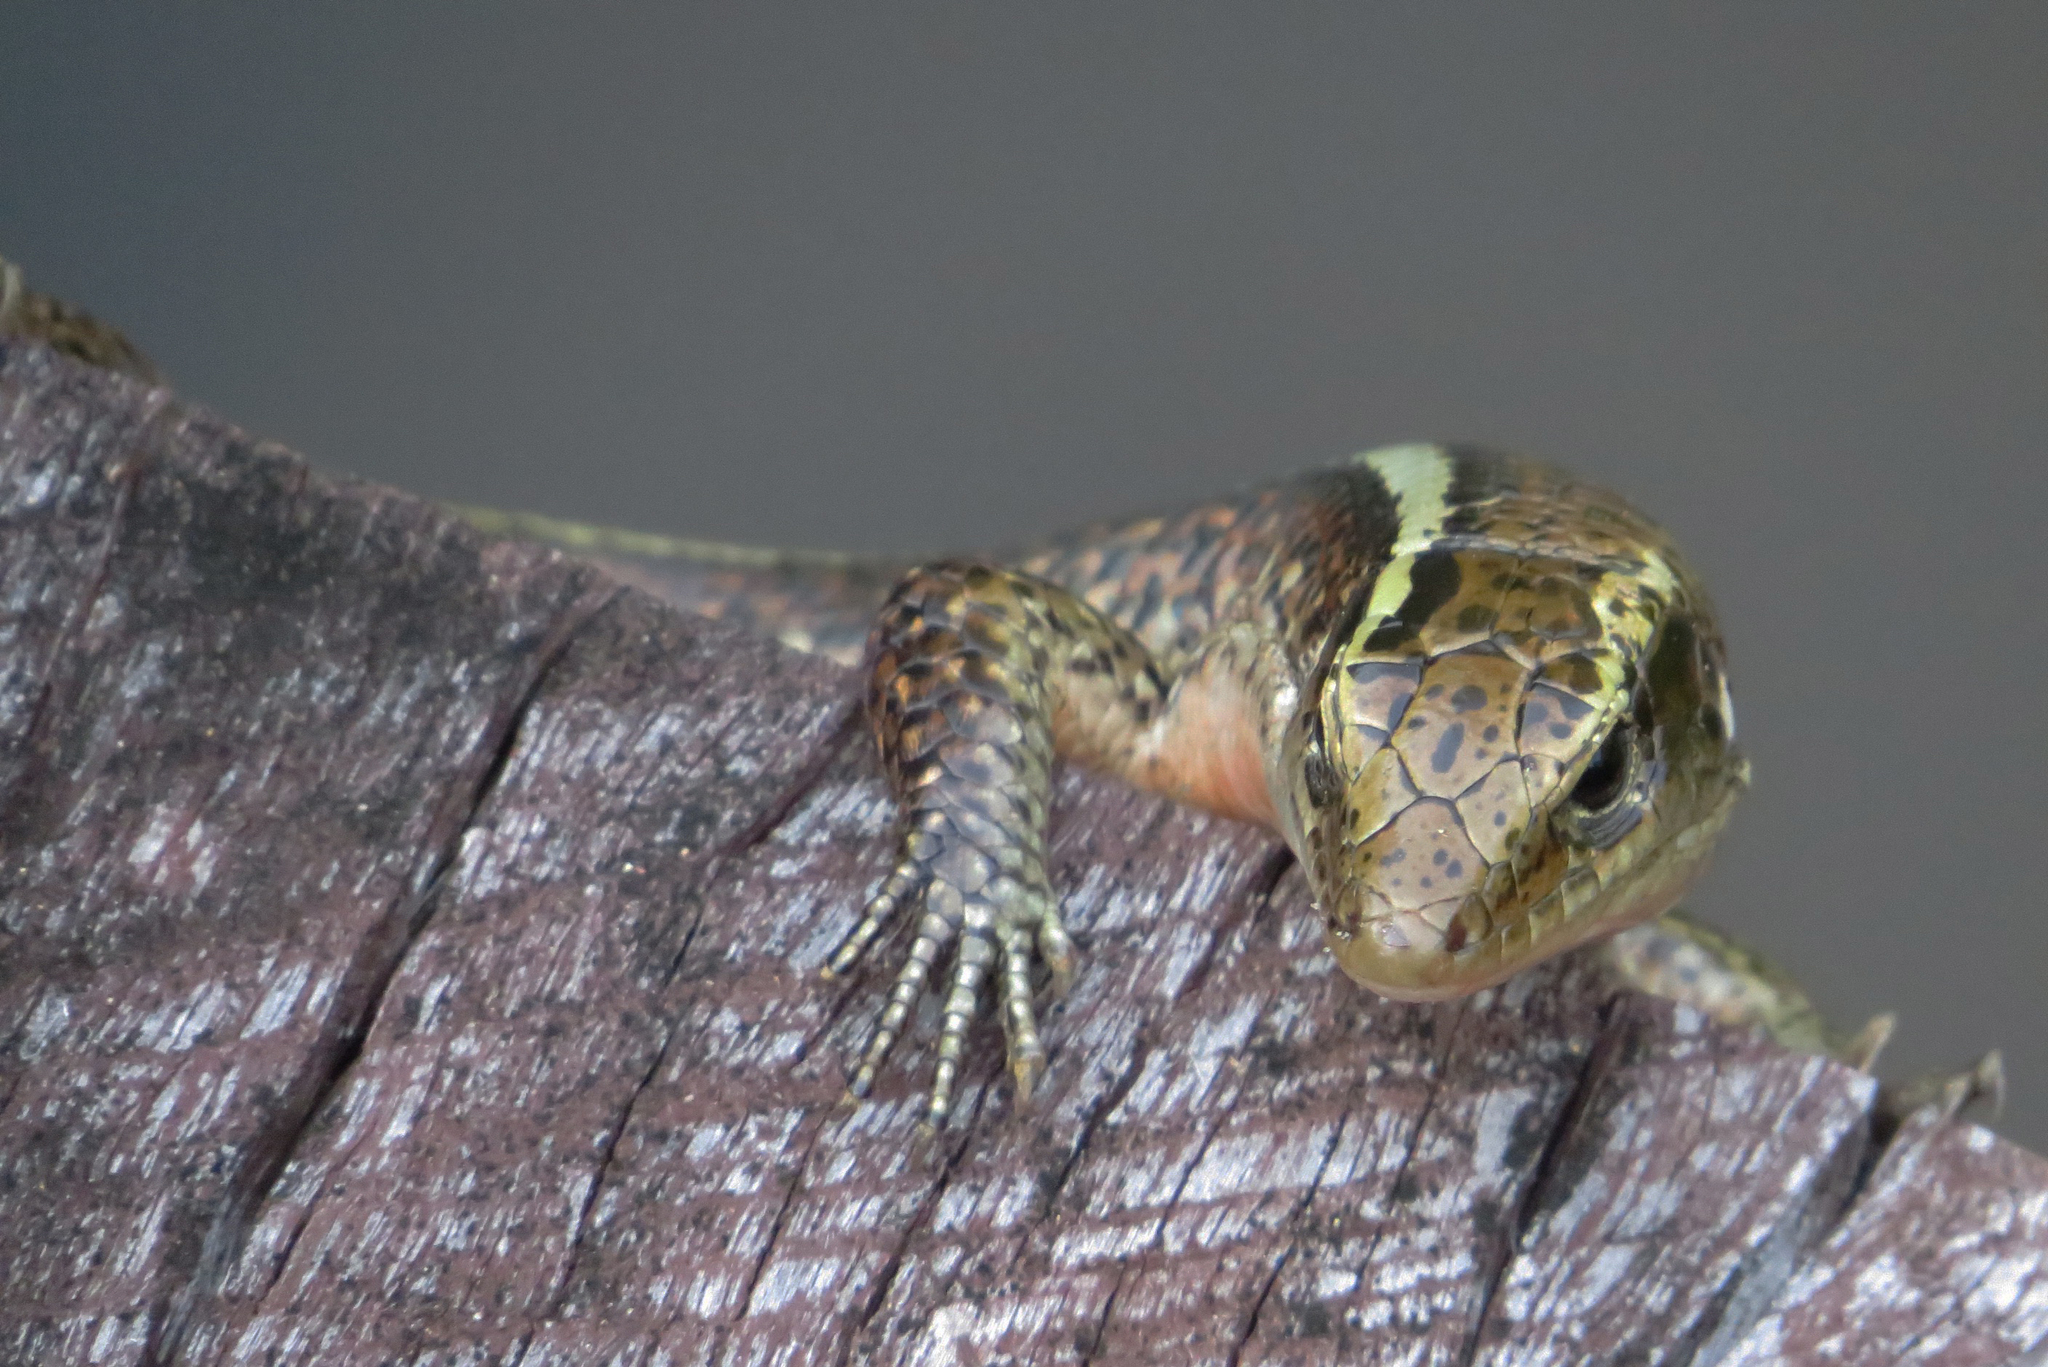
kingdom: Animalia
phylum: Chordata
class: Squamata
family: Gerrhosauridae
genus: Zonosaurus
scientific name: Zonosaurus madagascariensis
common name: Madagascar girdled lizard
